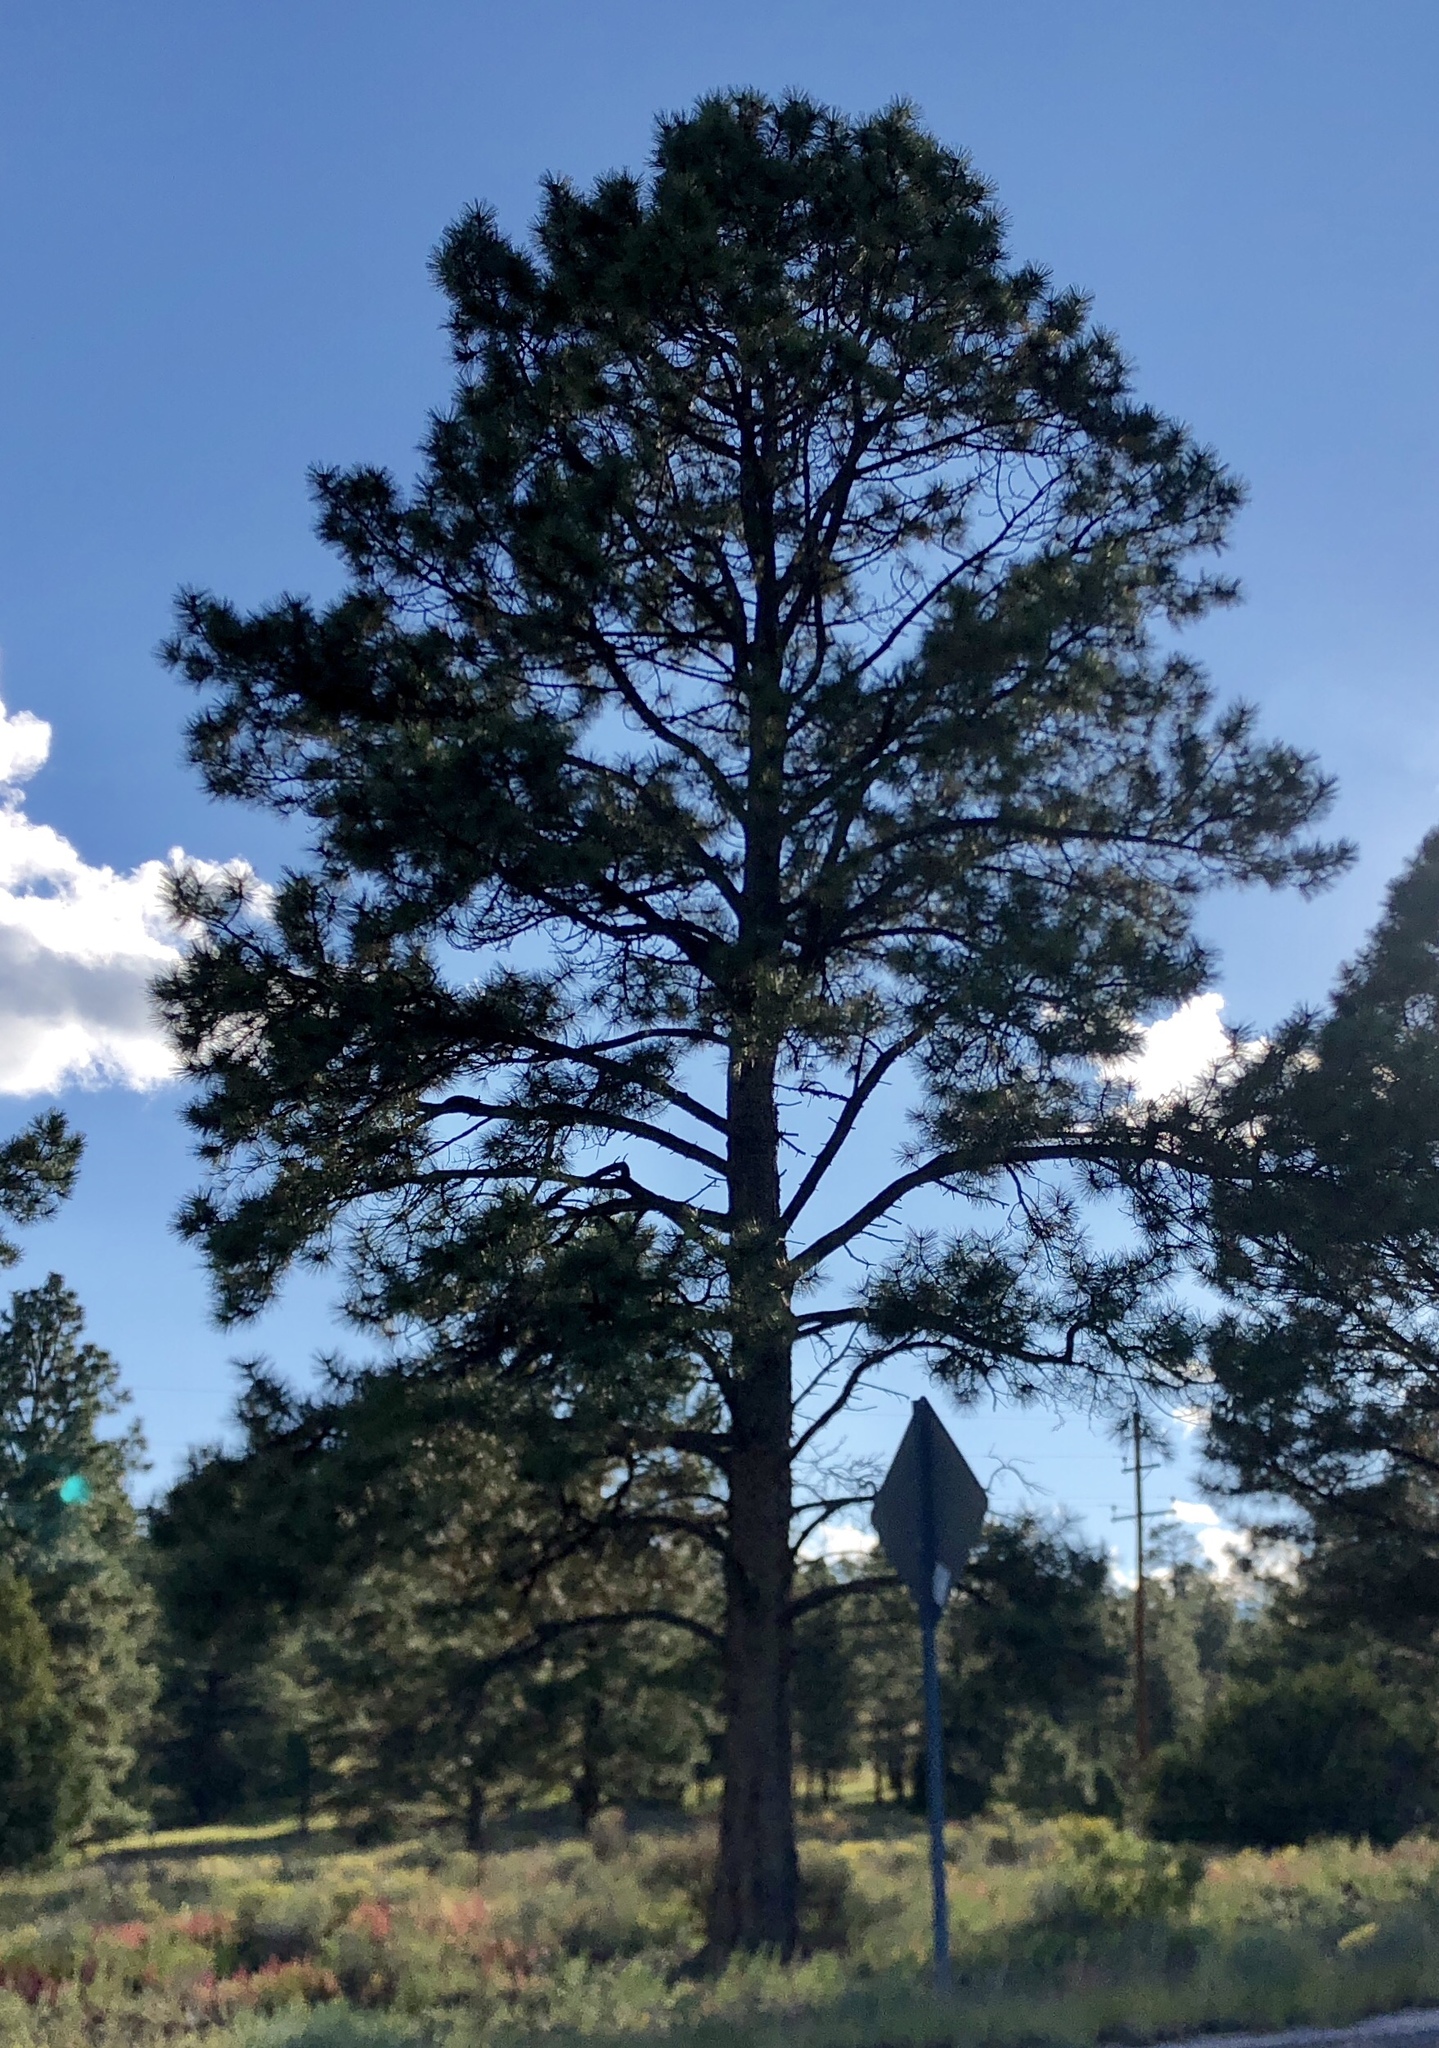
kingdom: Plantae
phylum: Tracheophyta
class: Pinopsida
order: Pinales
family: Pinaceae
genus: Pinus
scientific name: Pinus ponderosa
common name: Western yellow-pine
